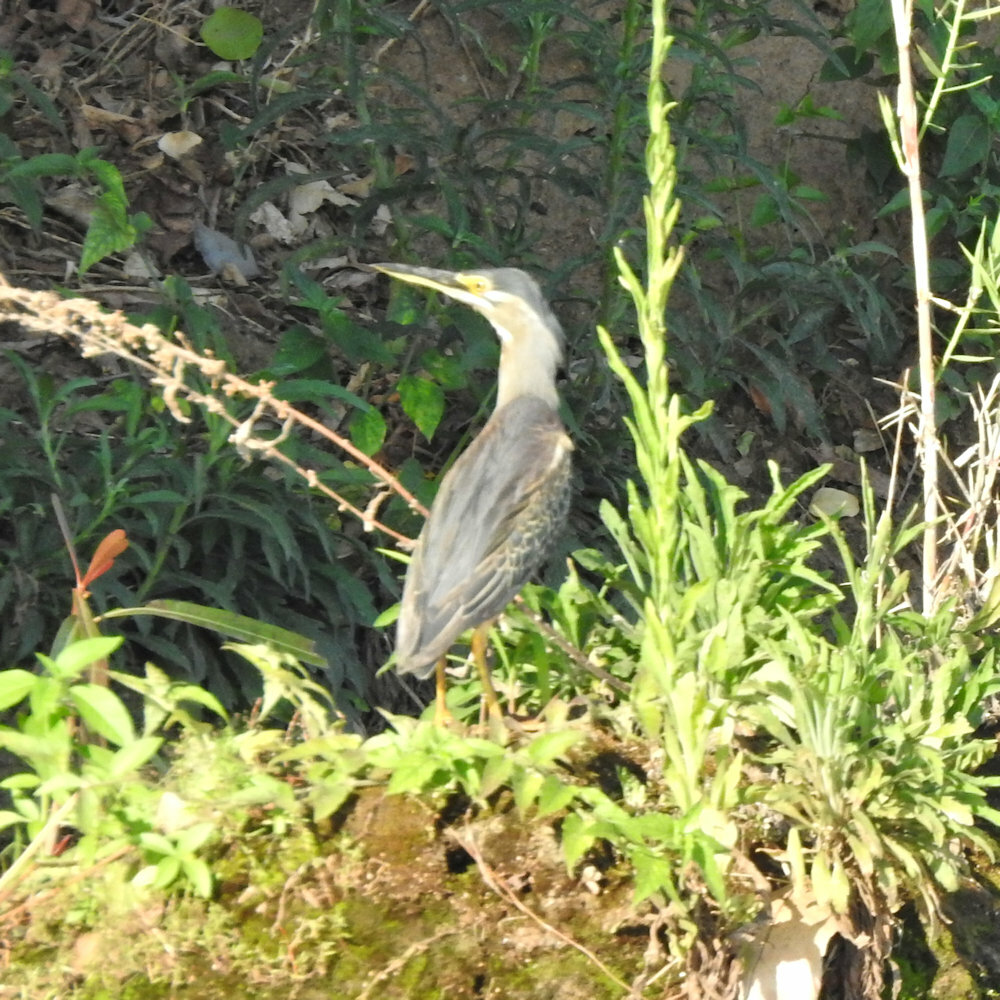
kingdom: Animalia
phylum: Chordata
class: Aves
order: Pelecaniformes
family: Ardeidae
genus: Butorides
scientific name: Butorides striata
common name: Striated heron
